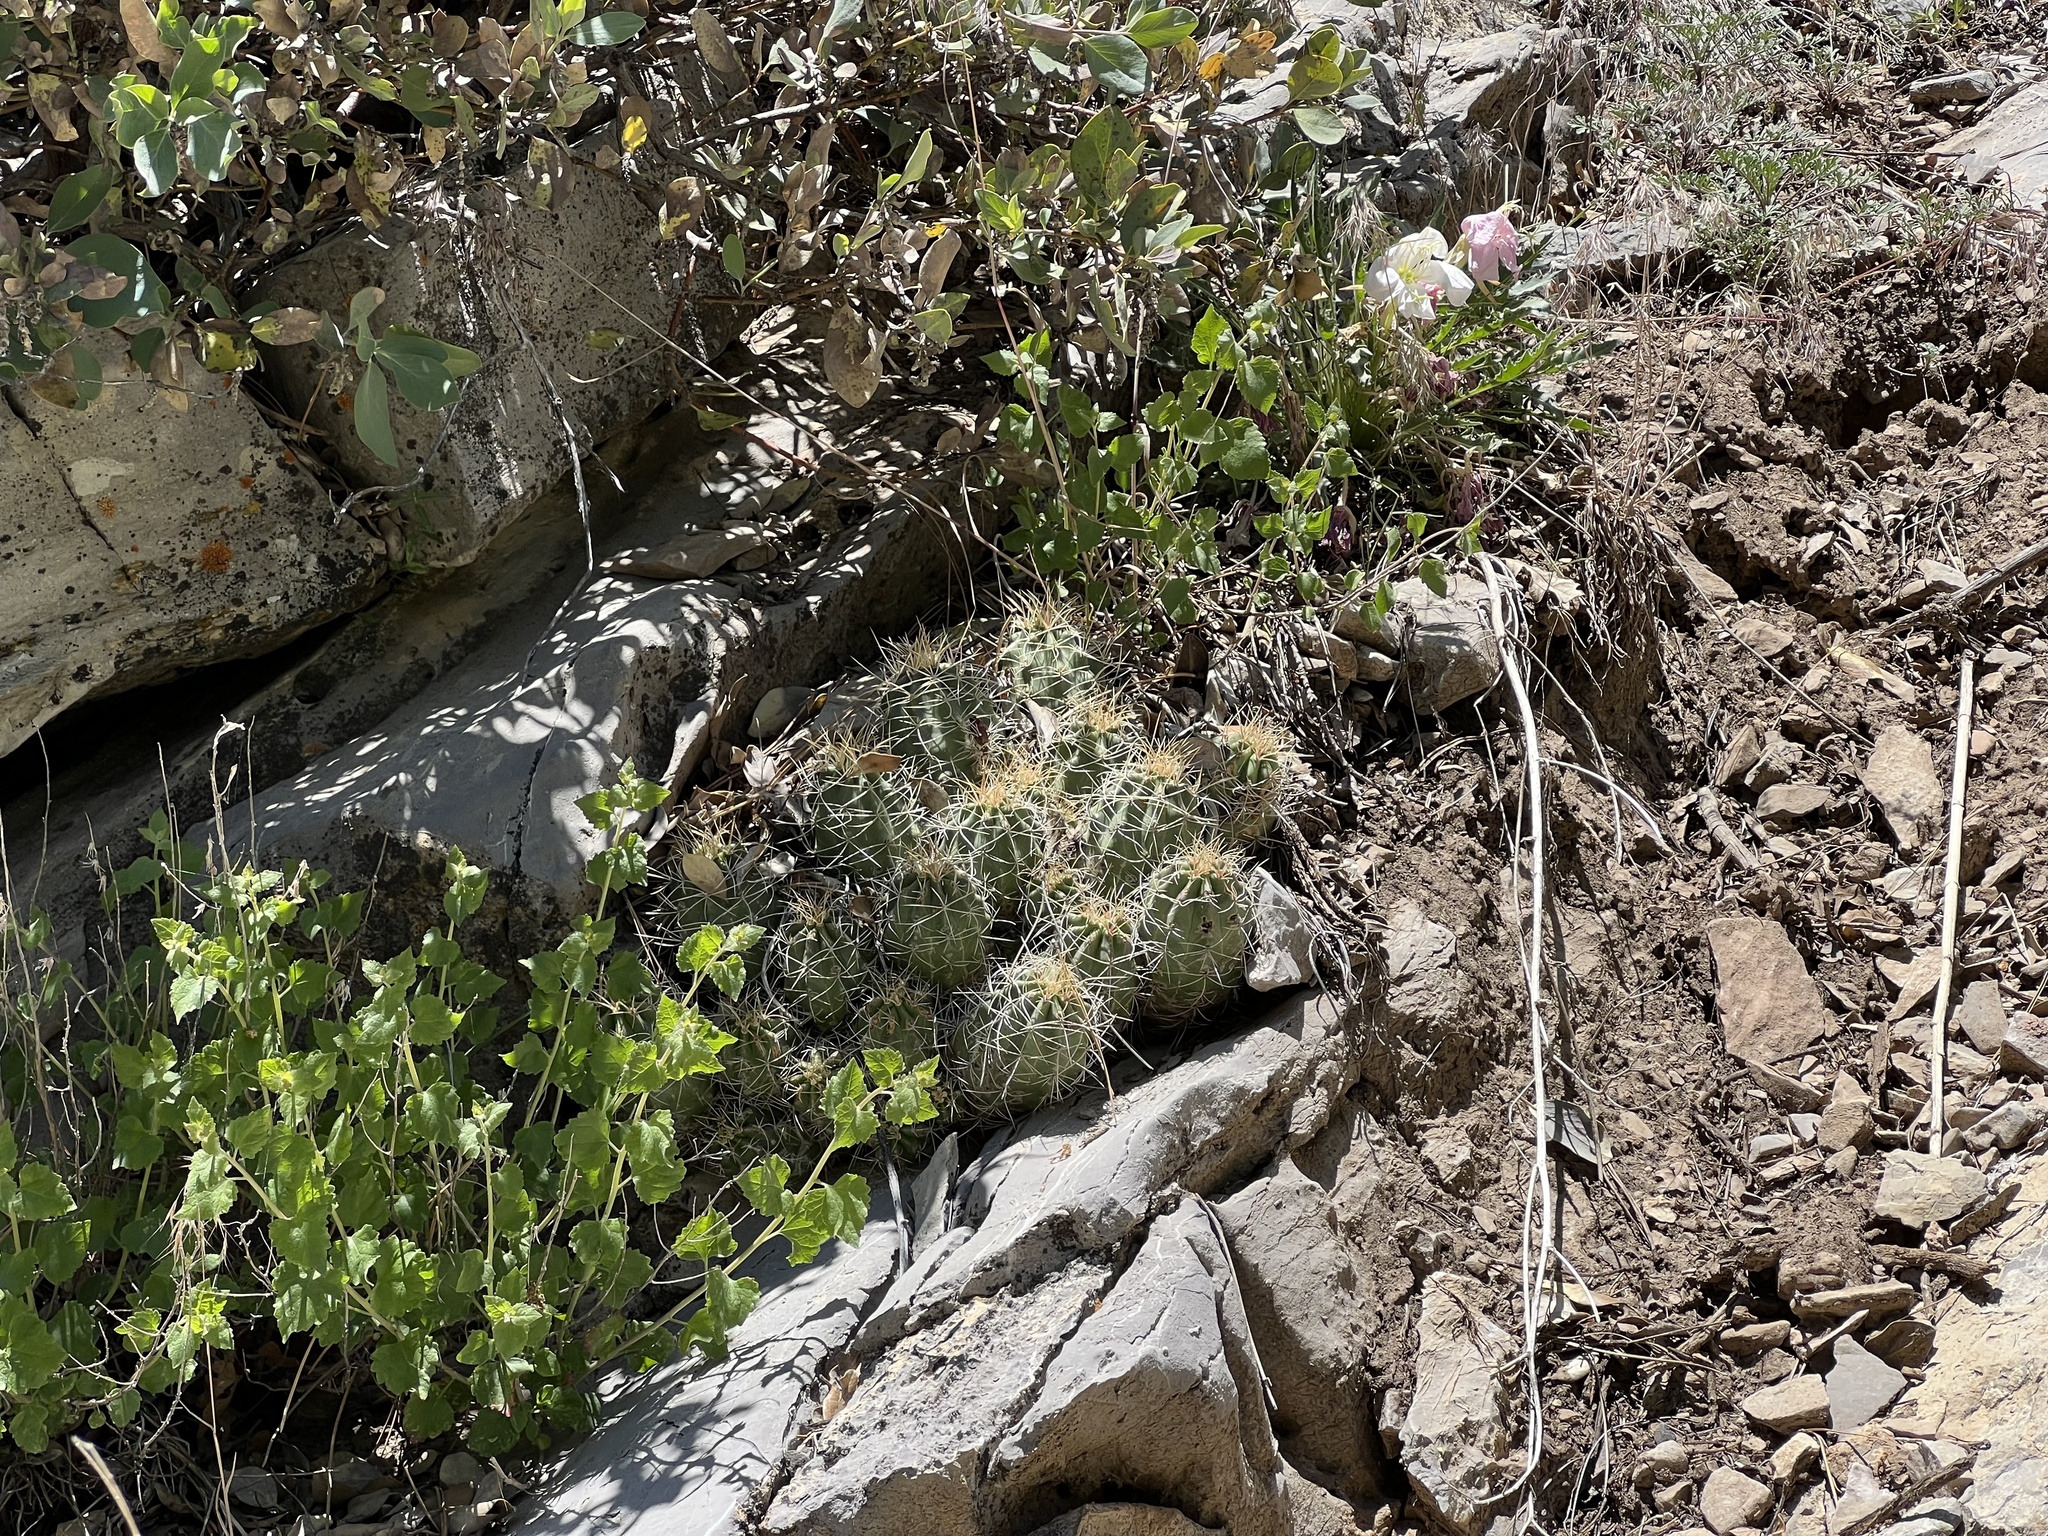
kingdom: Plantae
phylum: Tracheophyta
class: Magnoliopsida
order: Caryophyllales
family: Cactaceae
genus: Echinocereus
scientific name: Echinocereus triglochidiatus
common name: Claretcup hedgehog
